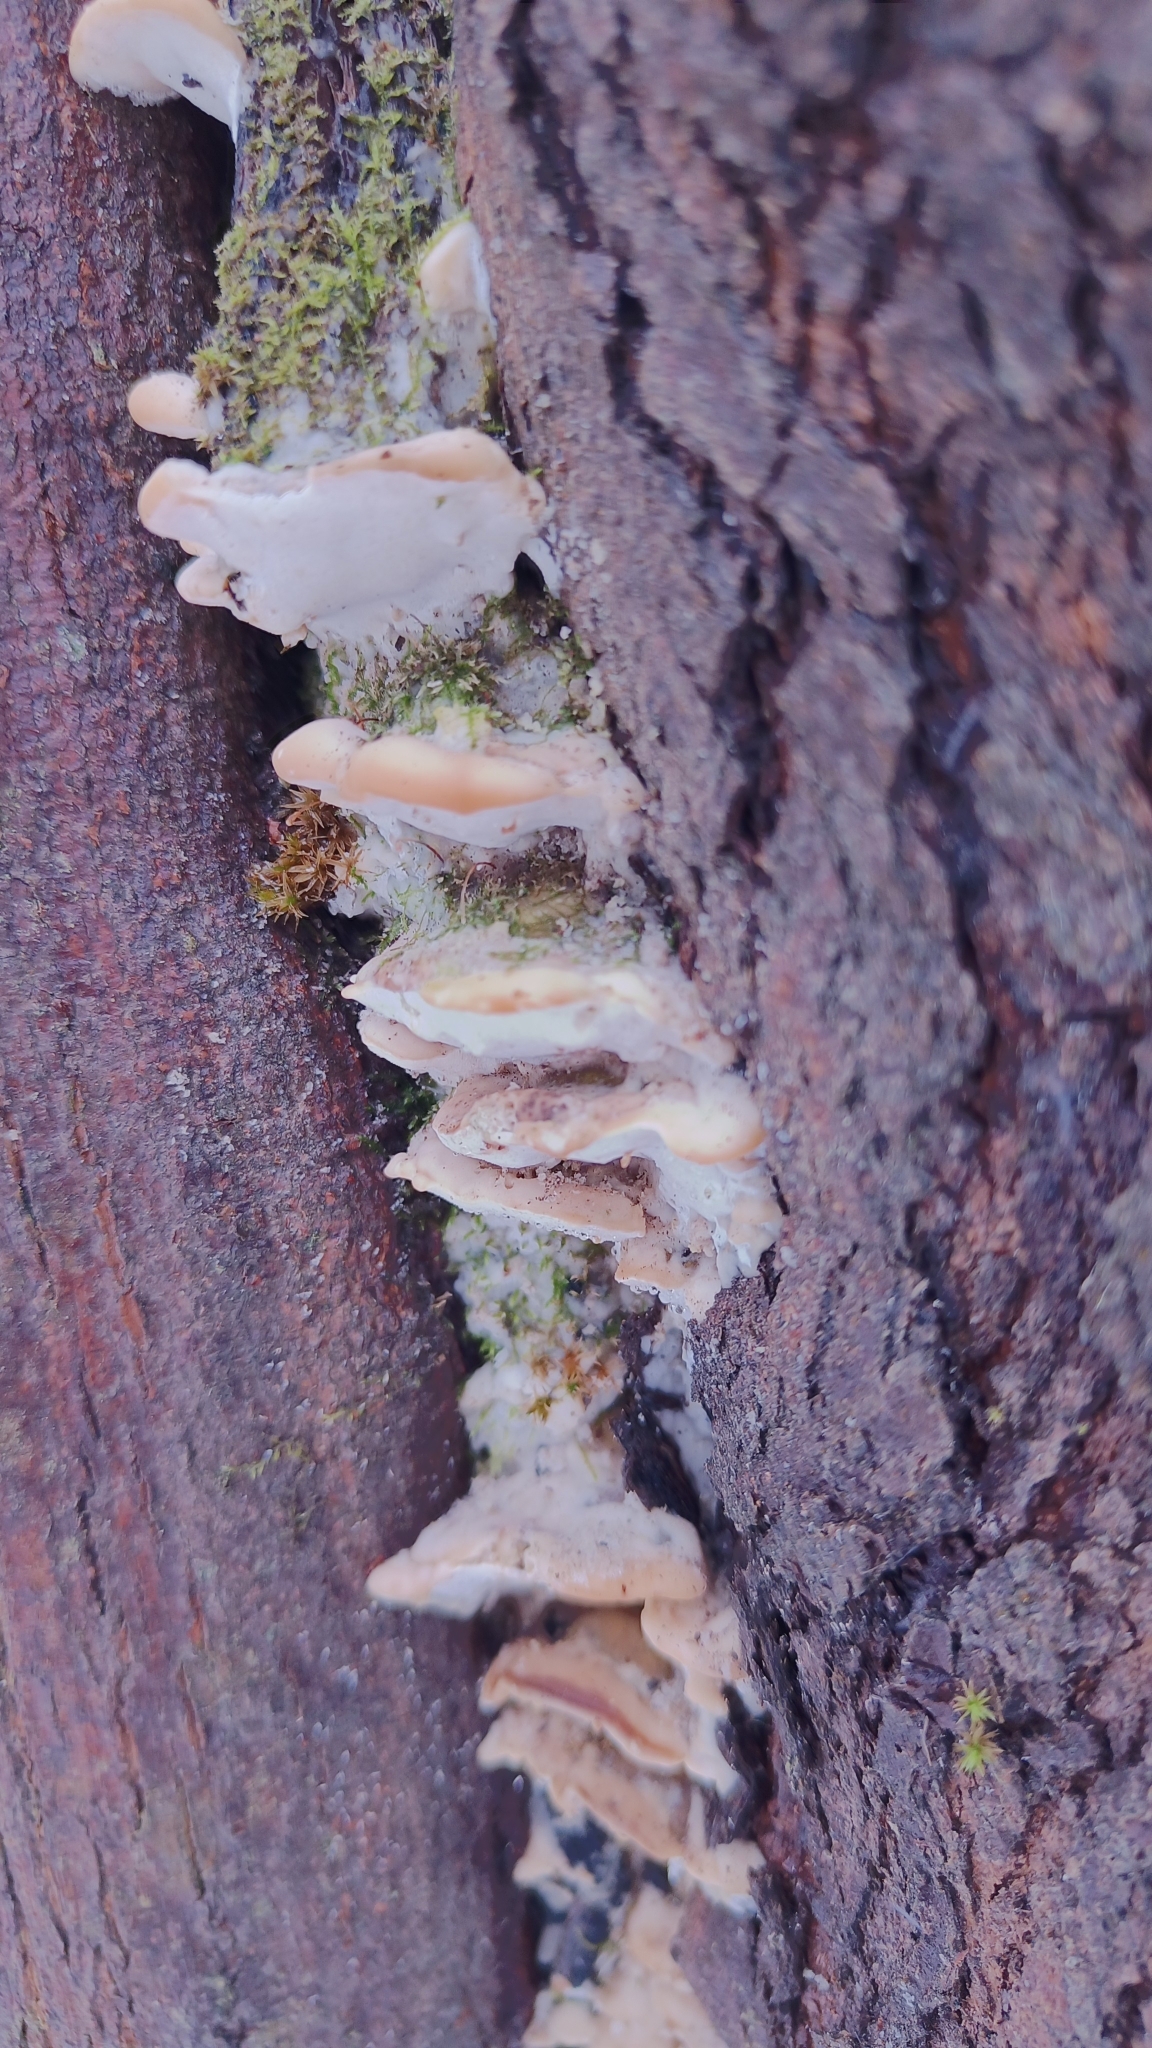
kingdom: Fungi
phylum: Basidiomycota
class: Agaricomycetes
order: Hymenochaetales
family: Oxyporaceae
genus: Oxyporus
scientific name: Oxyporus populinus
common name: Poplar bracket
